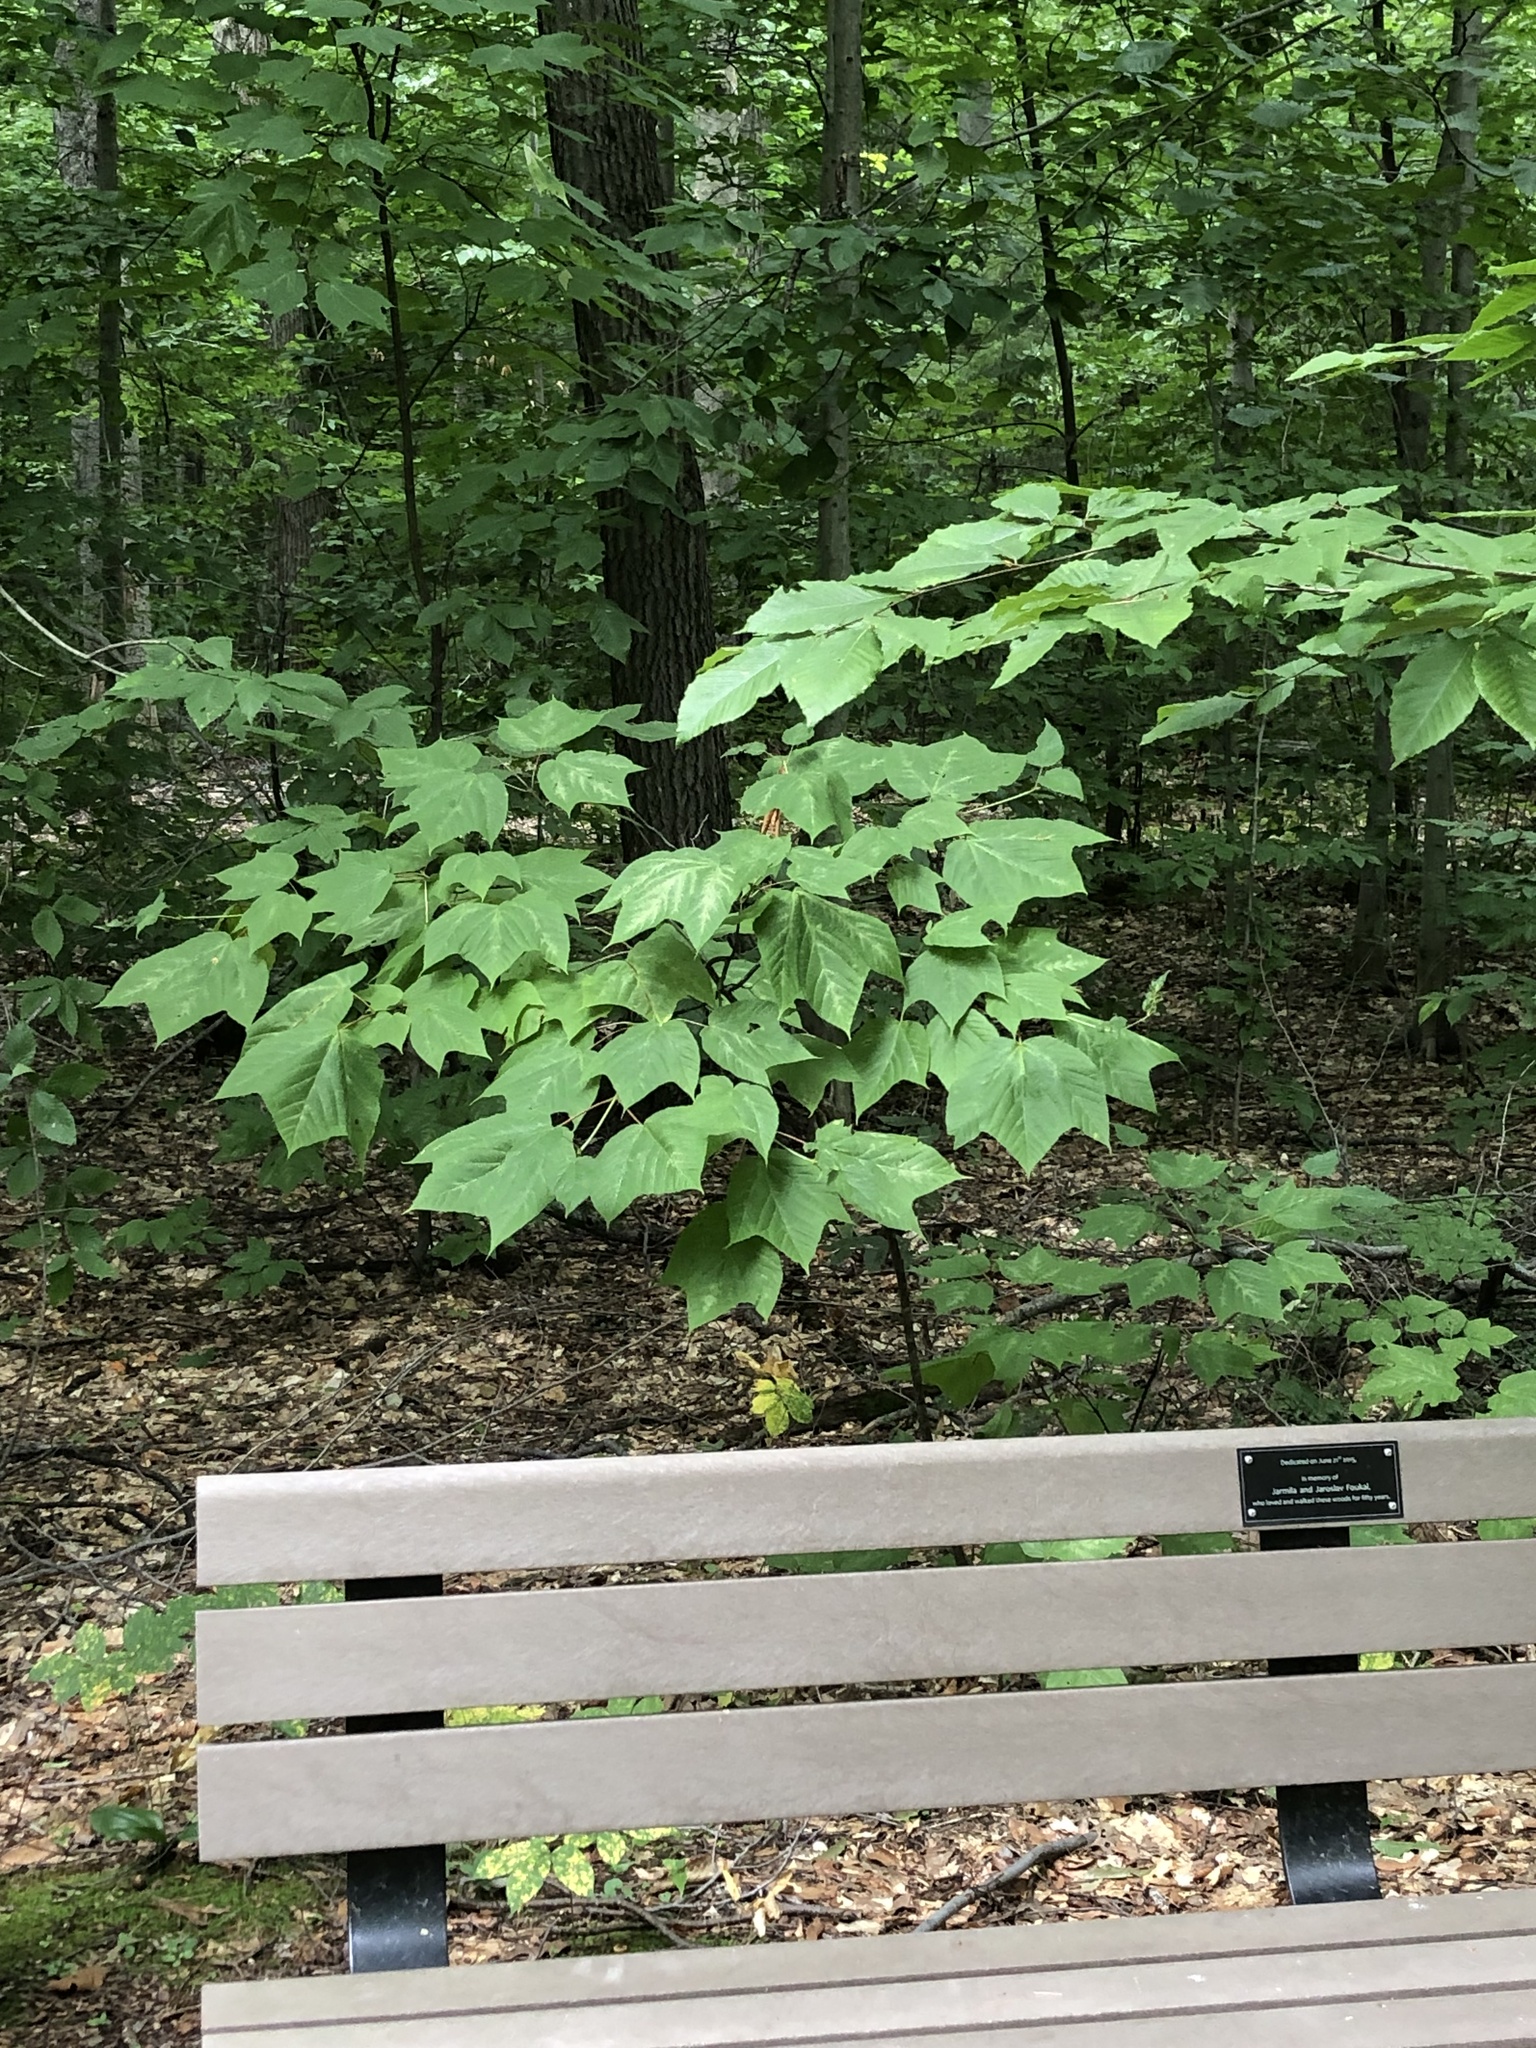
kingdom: Plantae
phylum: Tracheophyta
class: Magnoliopsida
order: Sapindales
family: Sapindaceae
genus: Acer
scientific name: Acer pensylvanicum
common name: Moosewood
